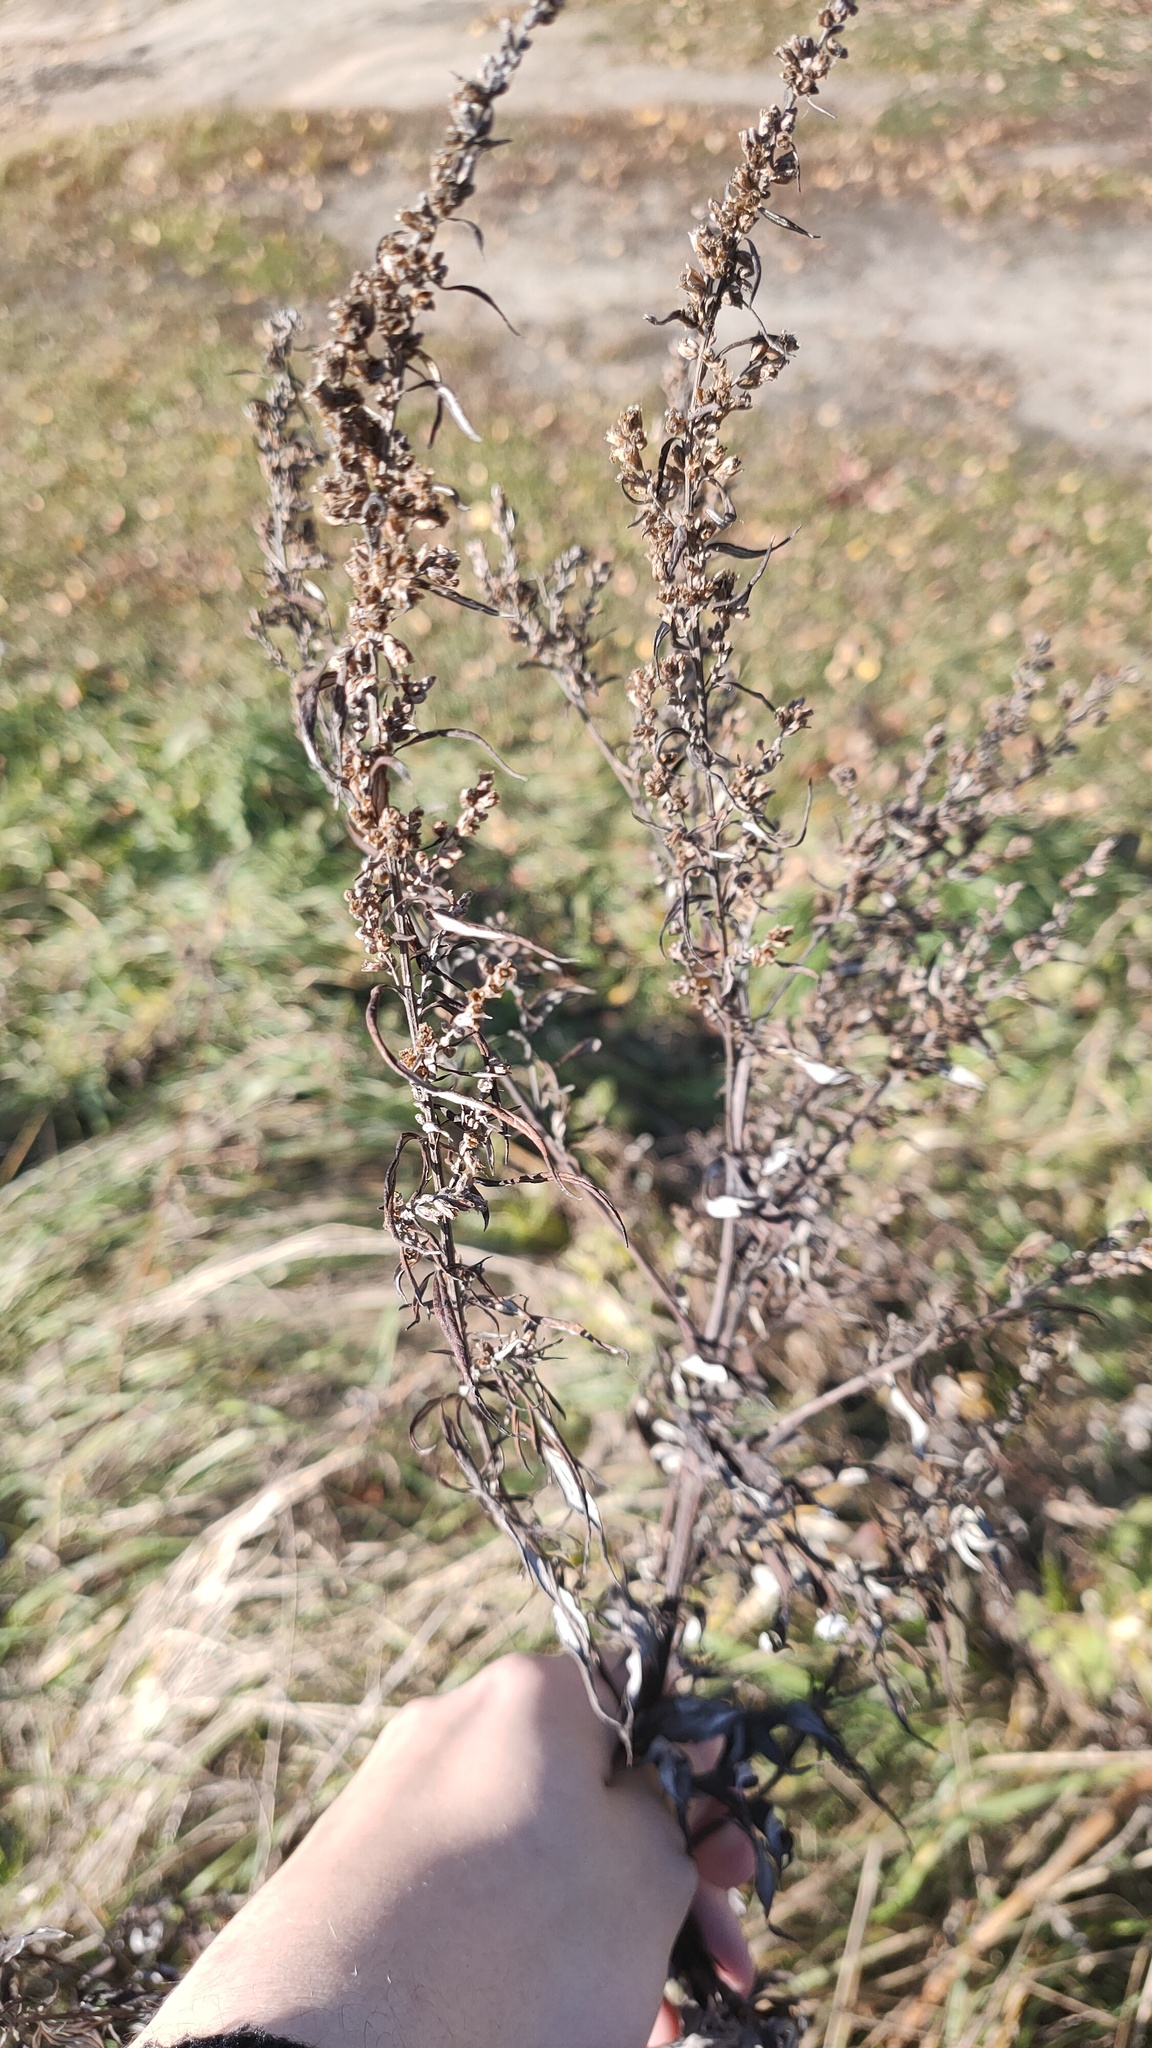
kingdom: Plantae
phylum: Tracheophyta
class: Magnoliopsida
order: Asterales
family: Asteraceae
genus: Artemisia
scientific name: Artemisia vulgaris
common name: Mugwort
